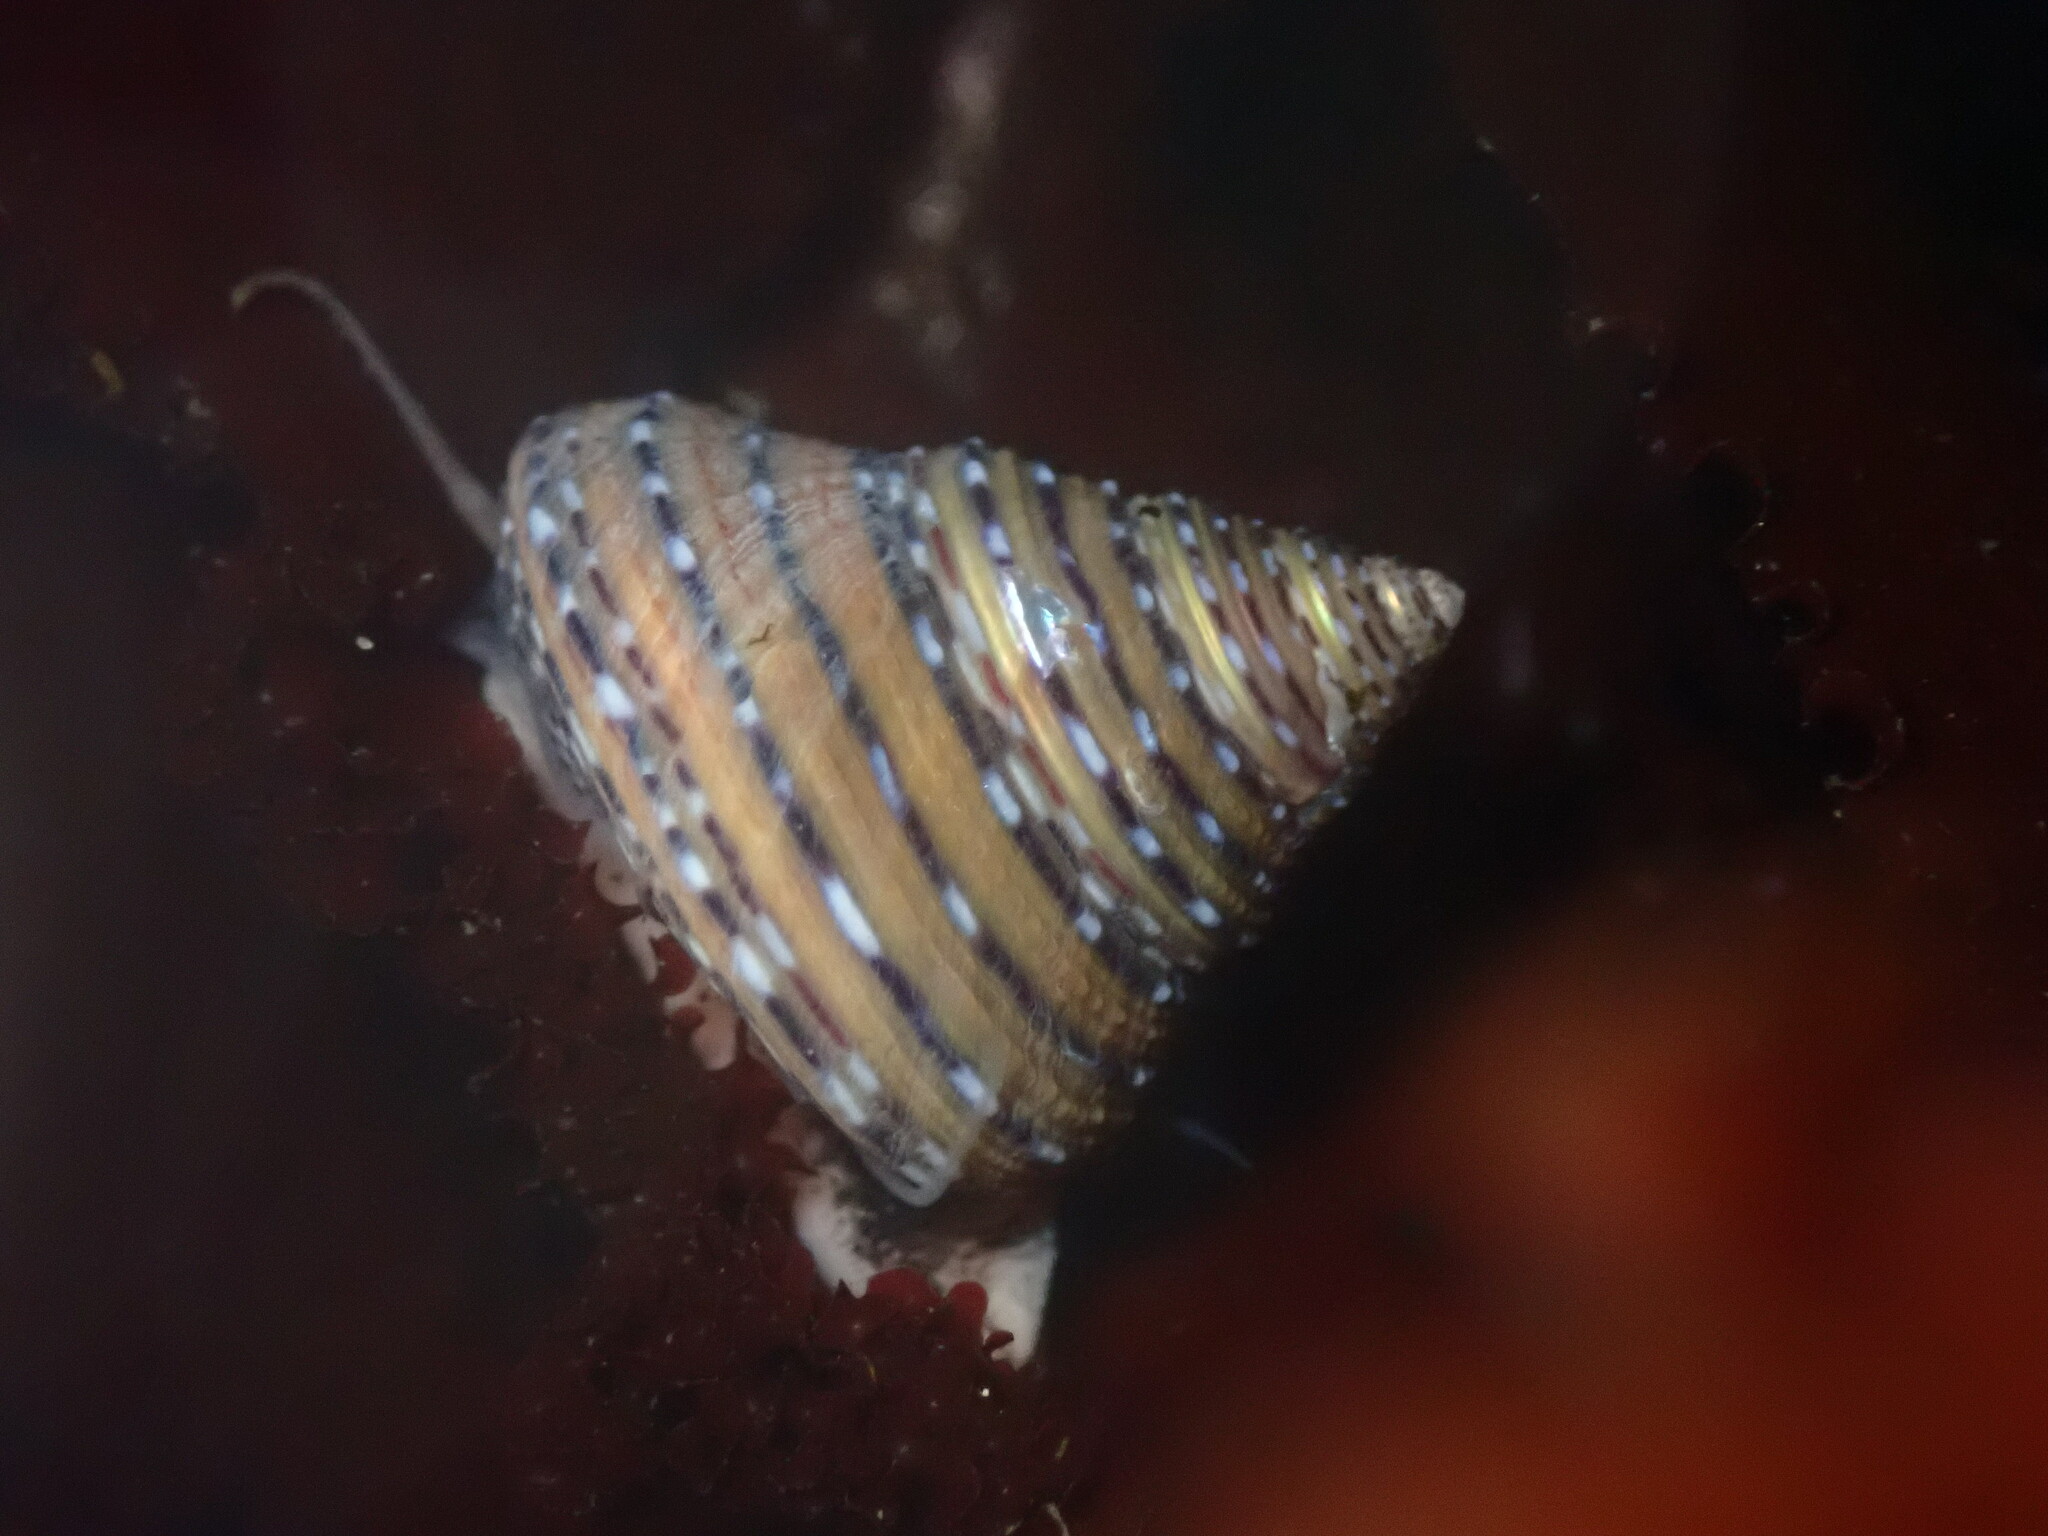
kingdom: Animalia
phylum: Mollusca
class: Gastropoda
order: Trochida
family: Calliostomatidae
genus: Calliostoma
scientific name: Calliostoma tricolor
